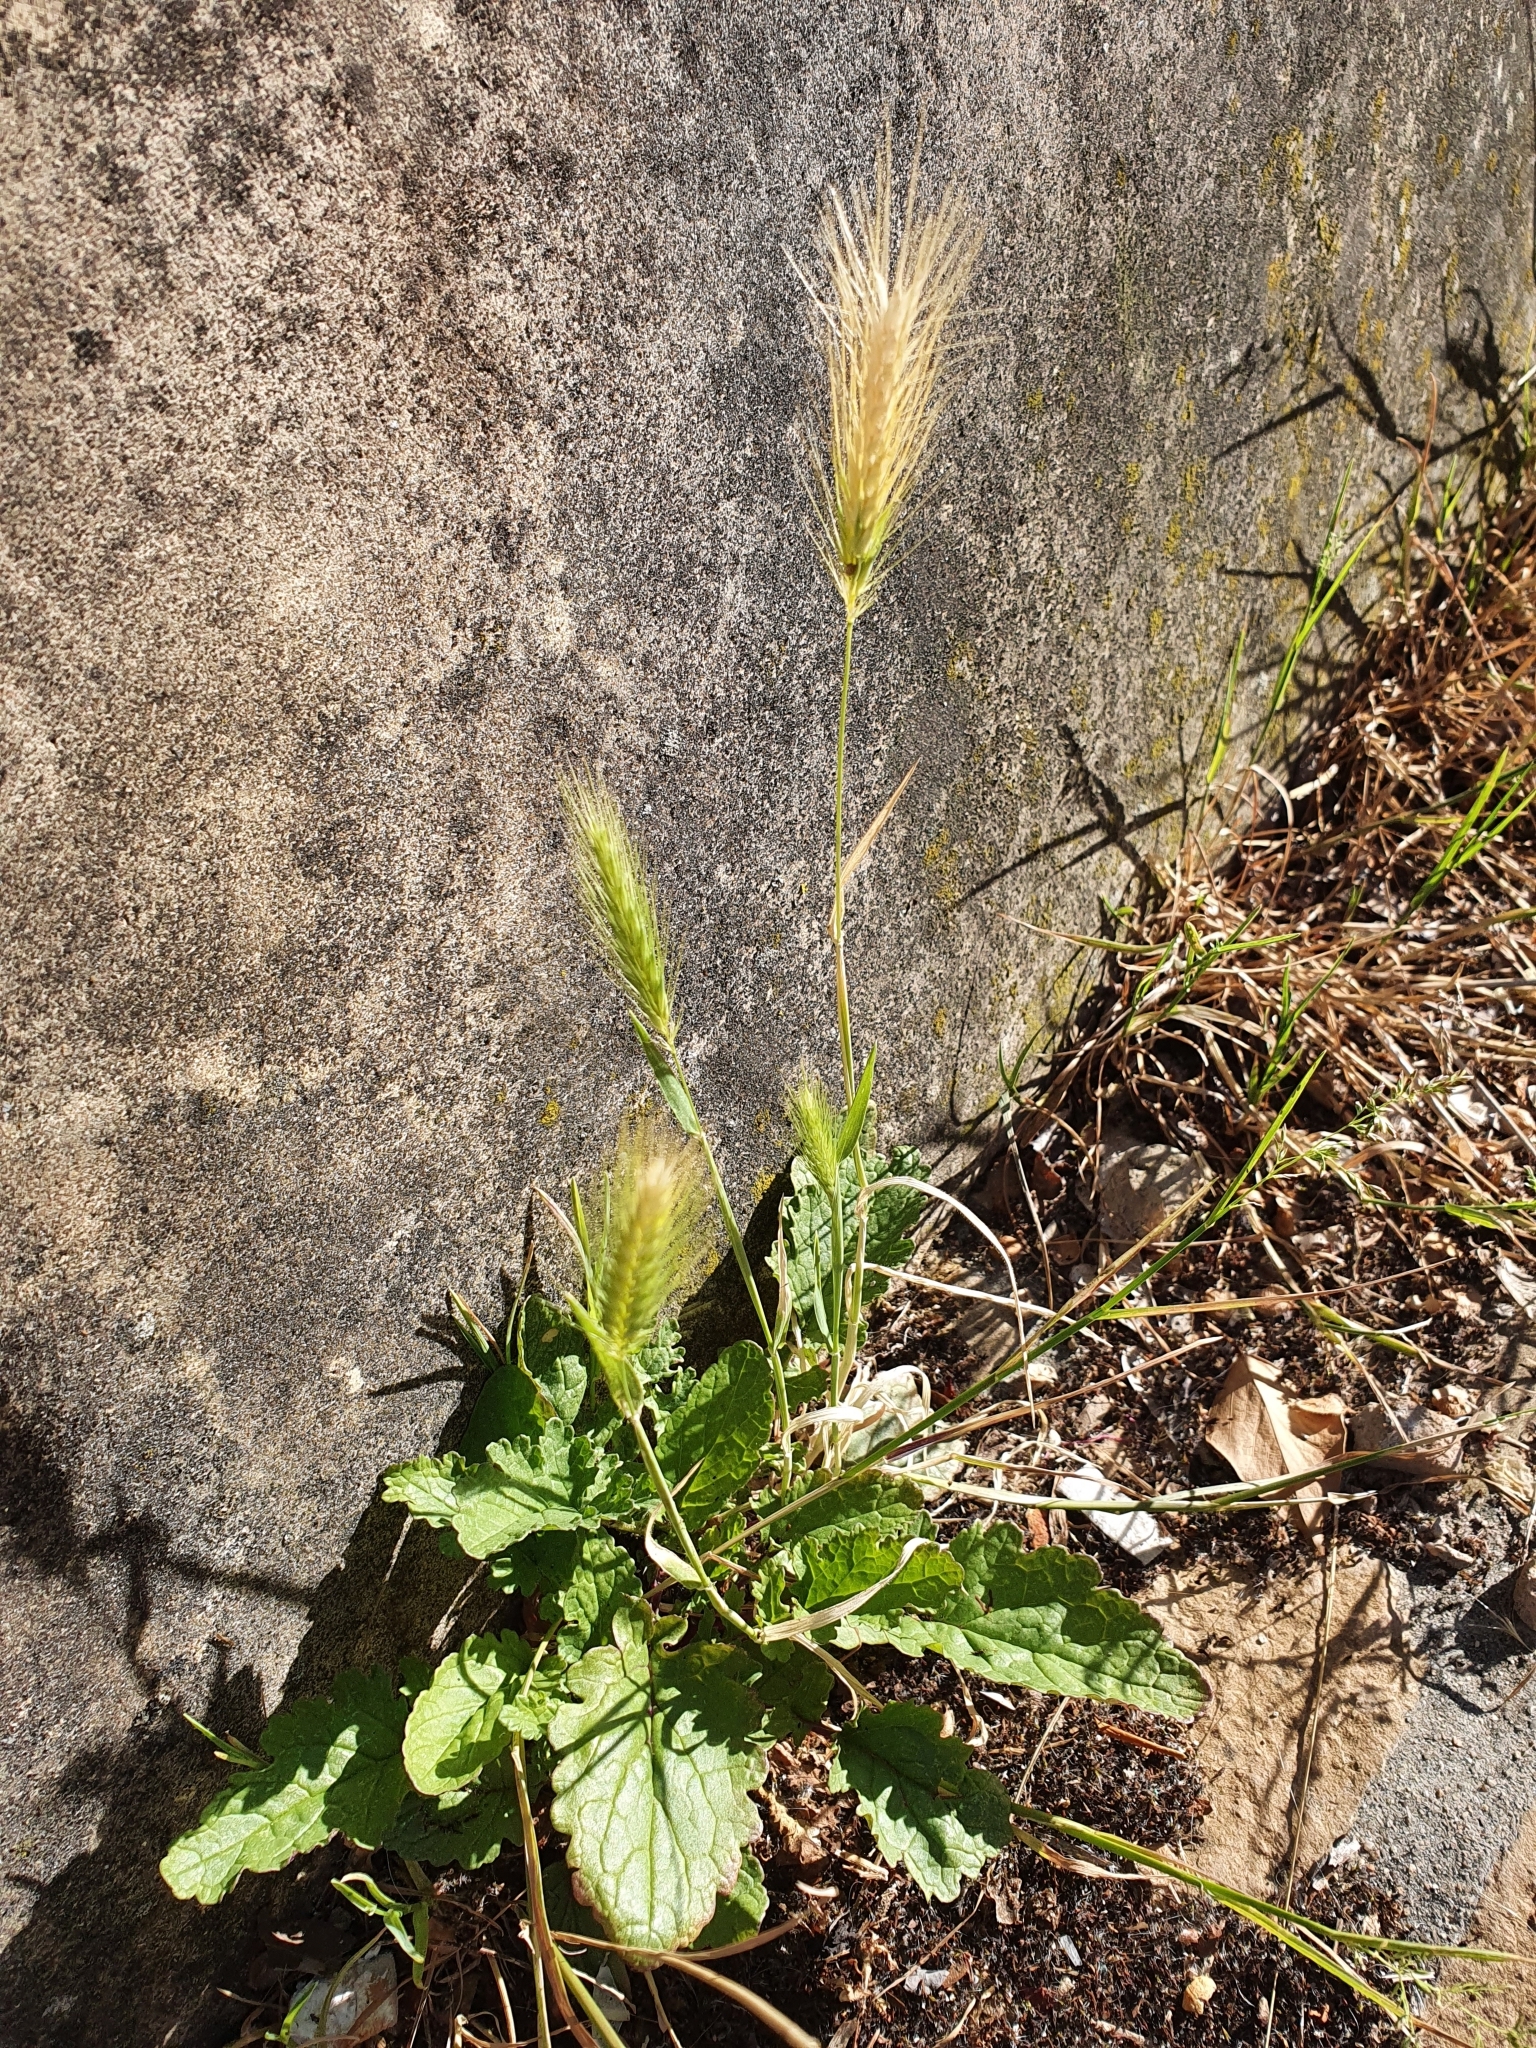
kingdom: Plantae
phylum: Tracheophyta
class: Liliopsida
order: Poales
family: Poaceae
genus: Hordeum
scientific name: Hordeum murinum
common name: Wall barley
